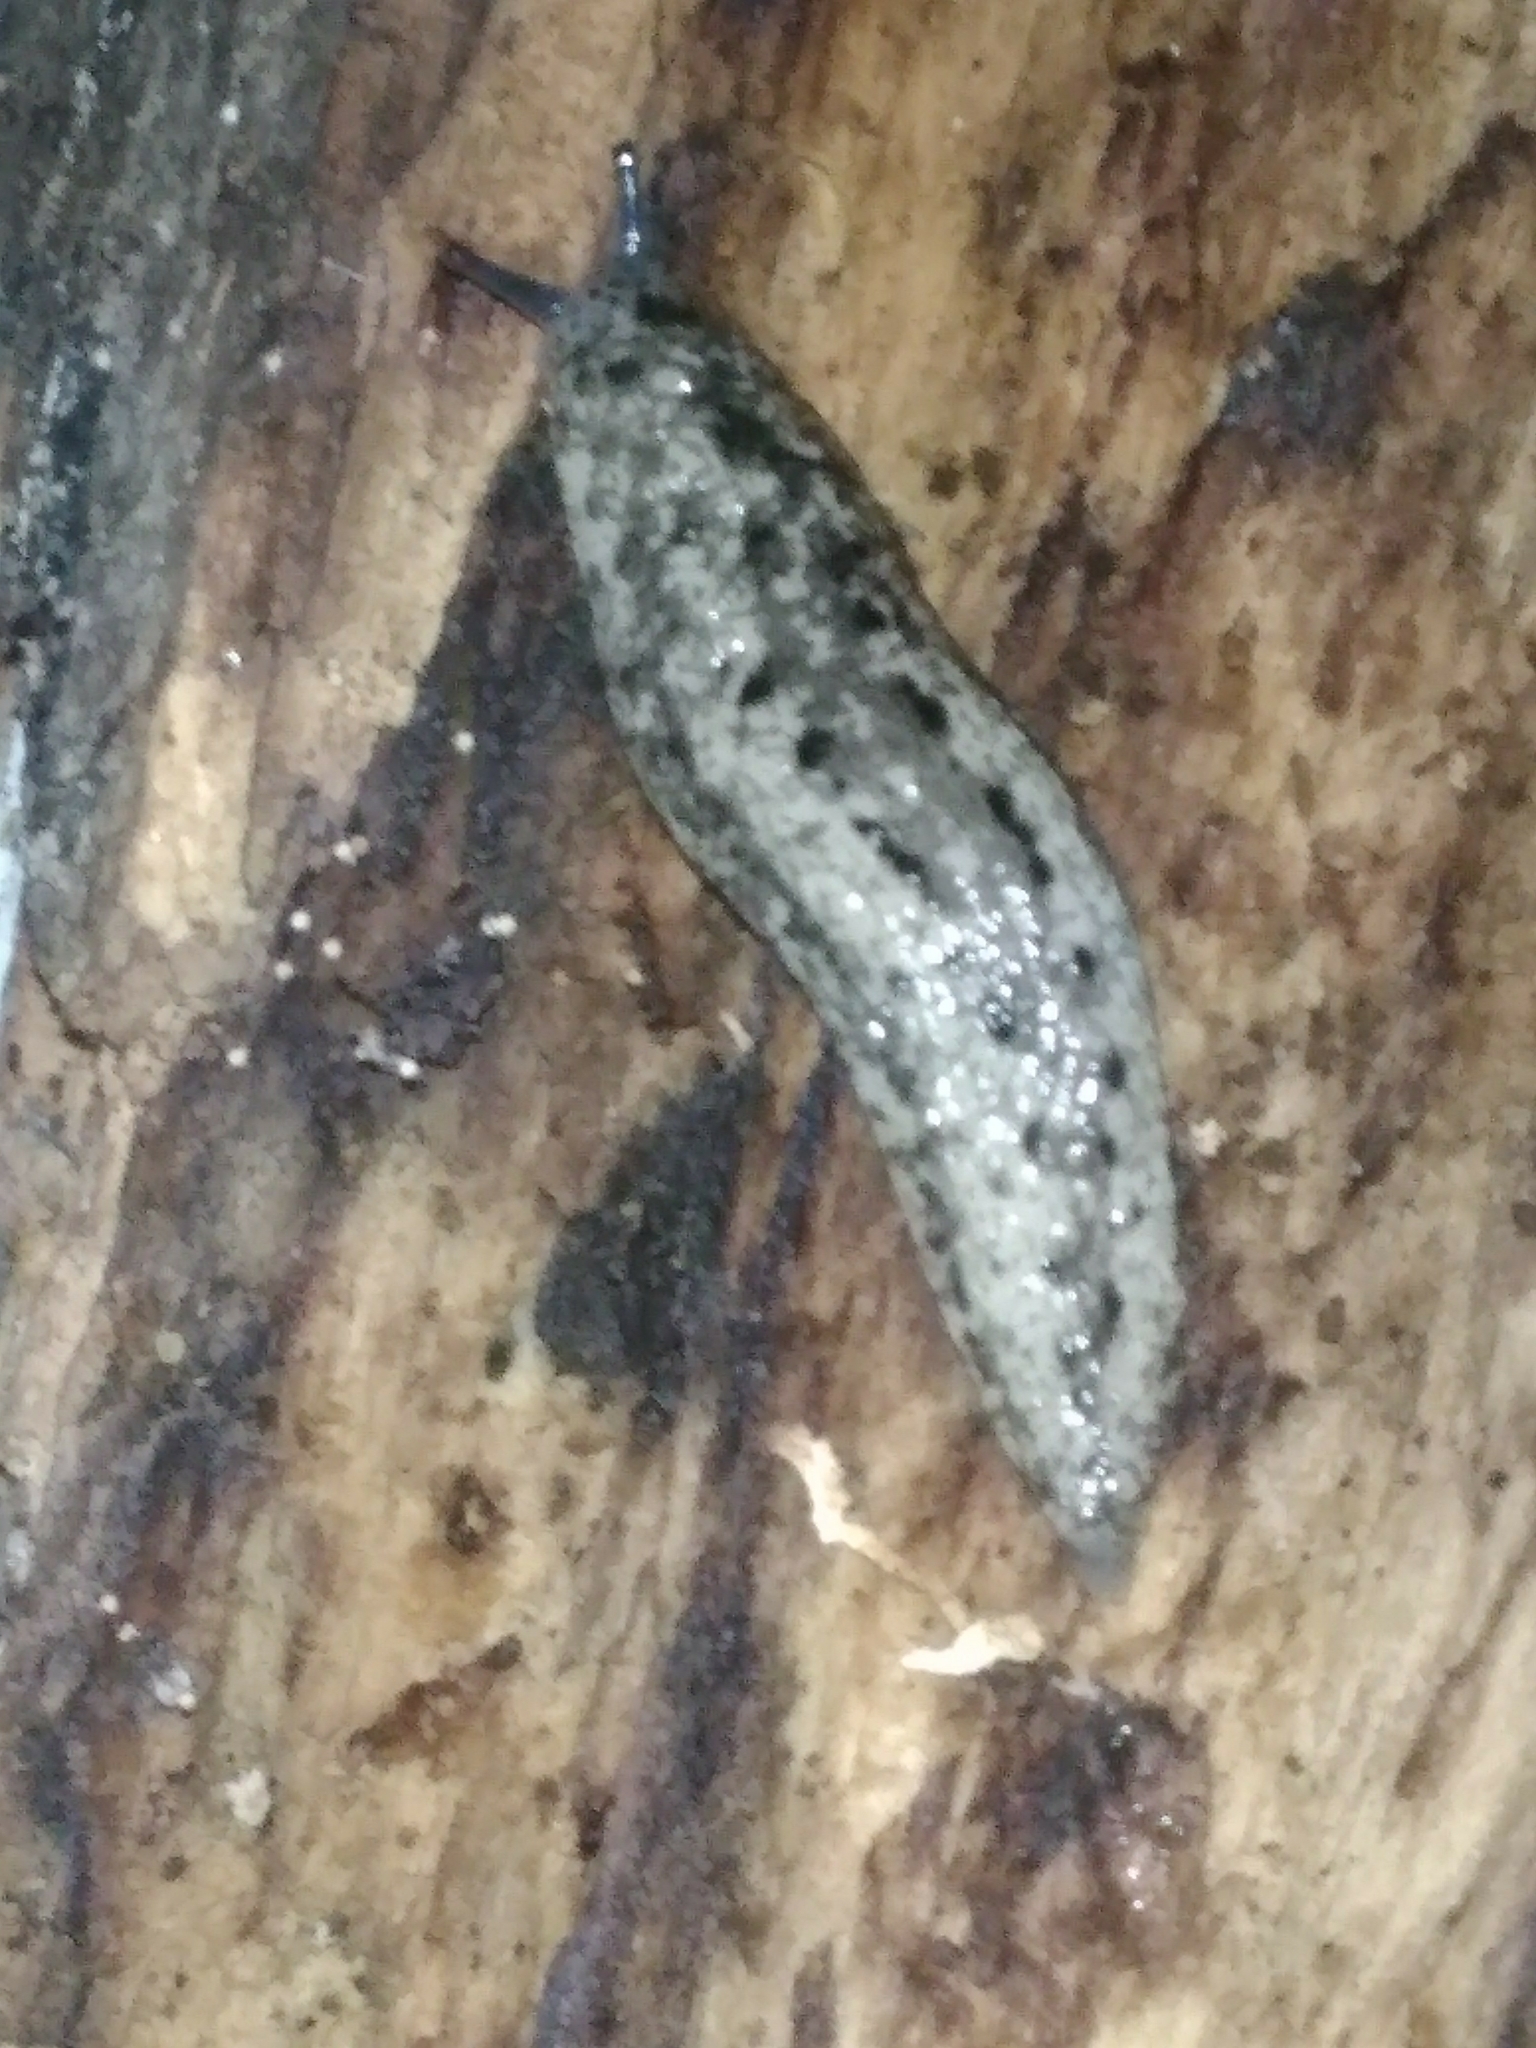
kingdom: Animalia
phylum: Mollusca
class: Gastropoda
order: Stylommatophora
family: Philomycidae
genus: Philomycus
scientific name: Philomycus carolinianus
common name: Carolina mantleslug
